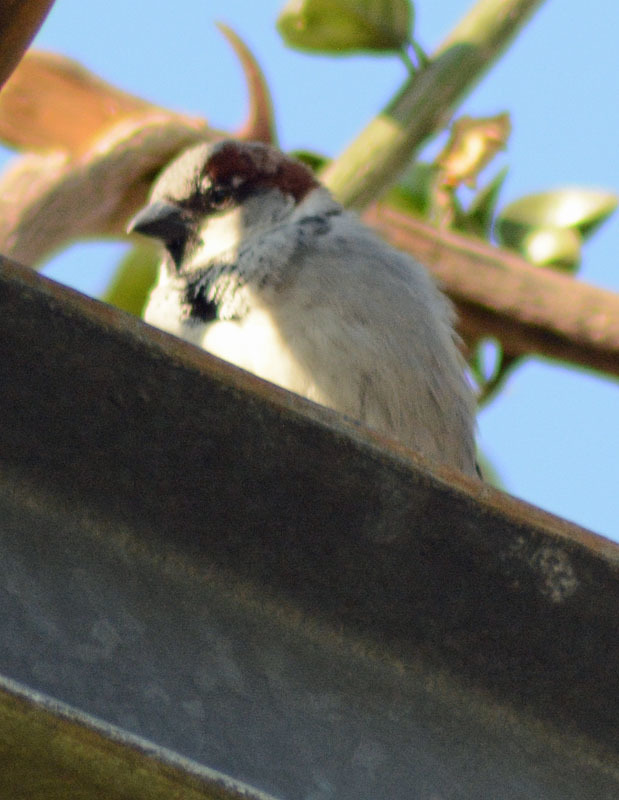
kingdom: Animalia
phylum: Chordata
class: Aves
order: Passeriformes
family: Passeridae
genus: Passer
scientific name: Passer domesticus
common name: House sparrow
